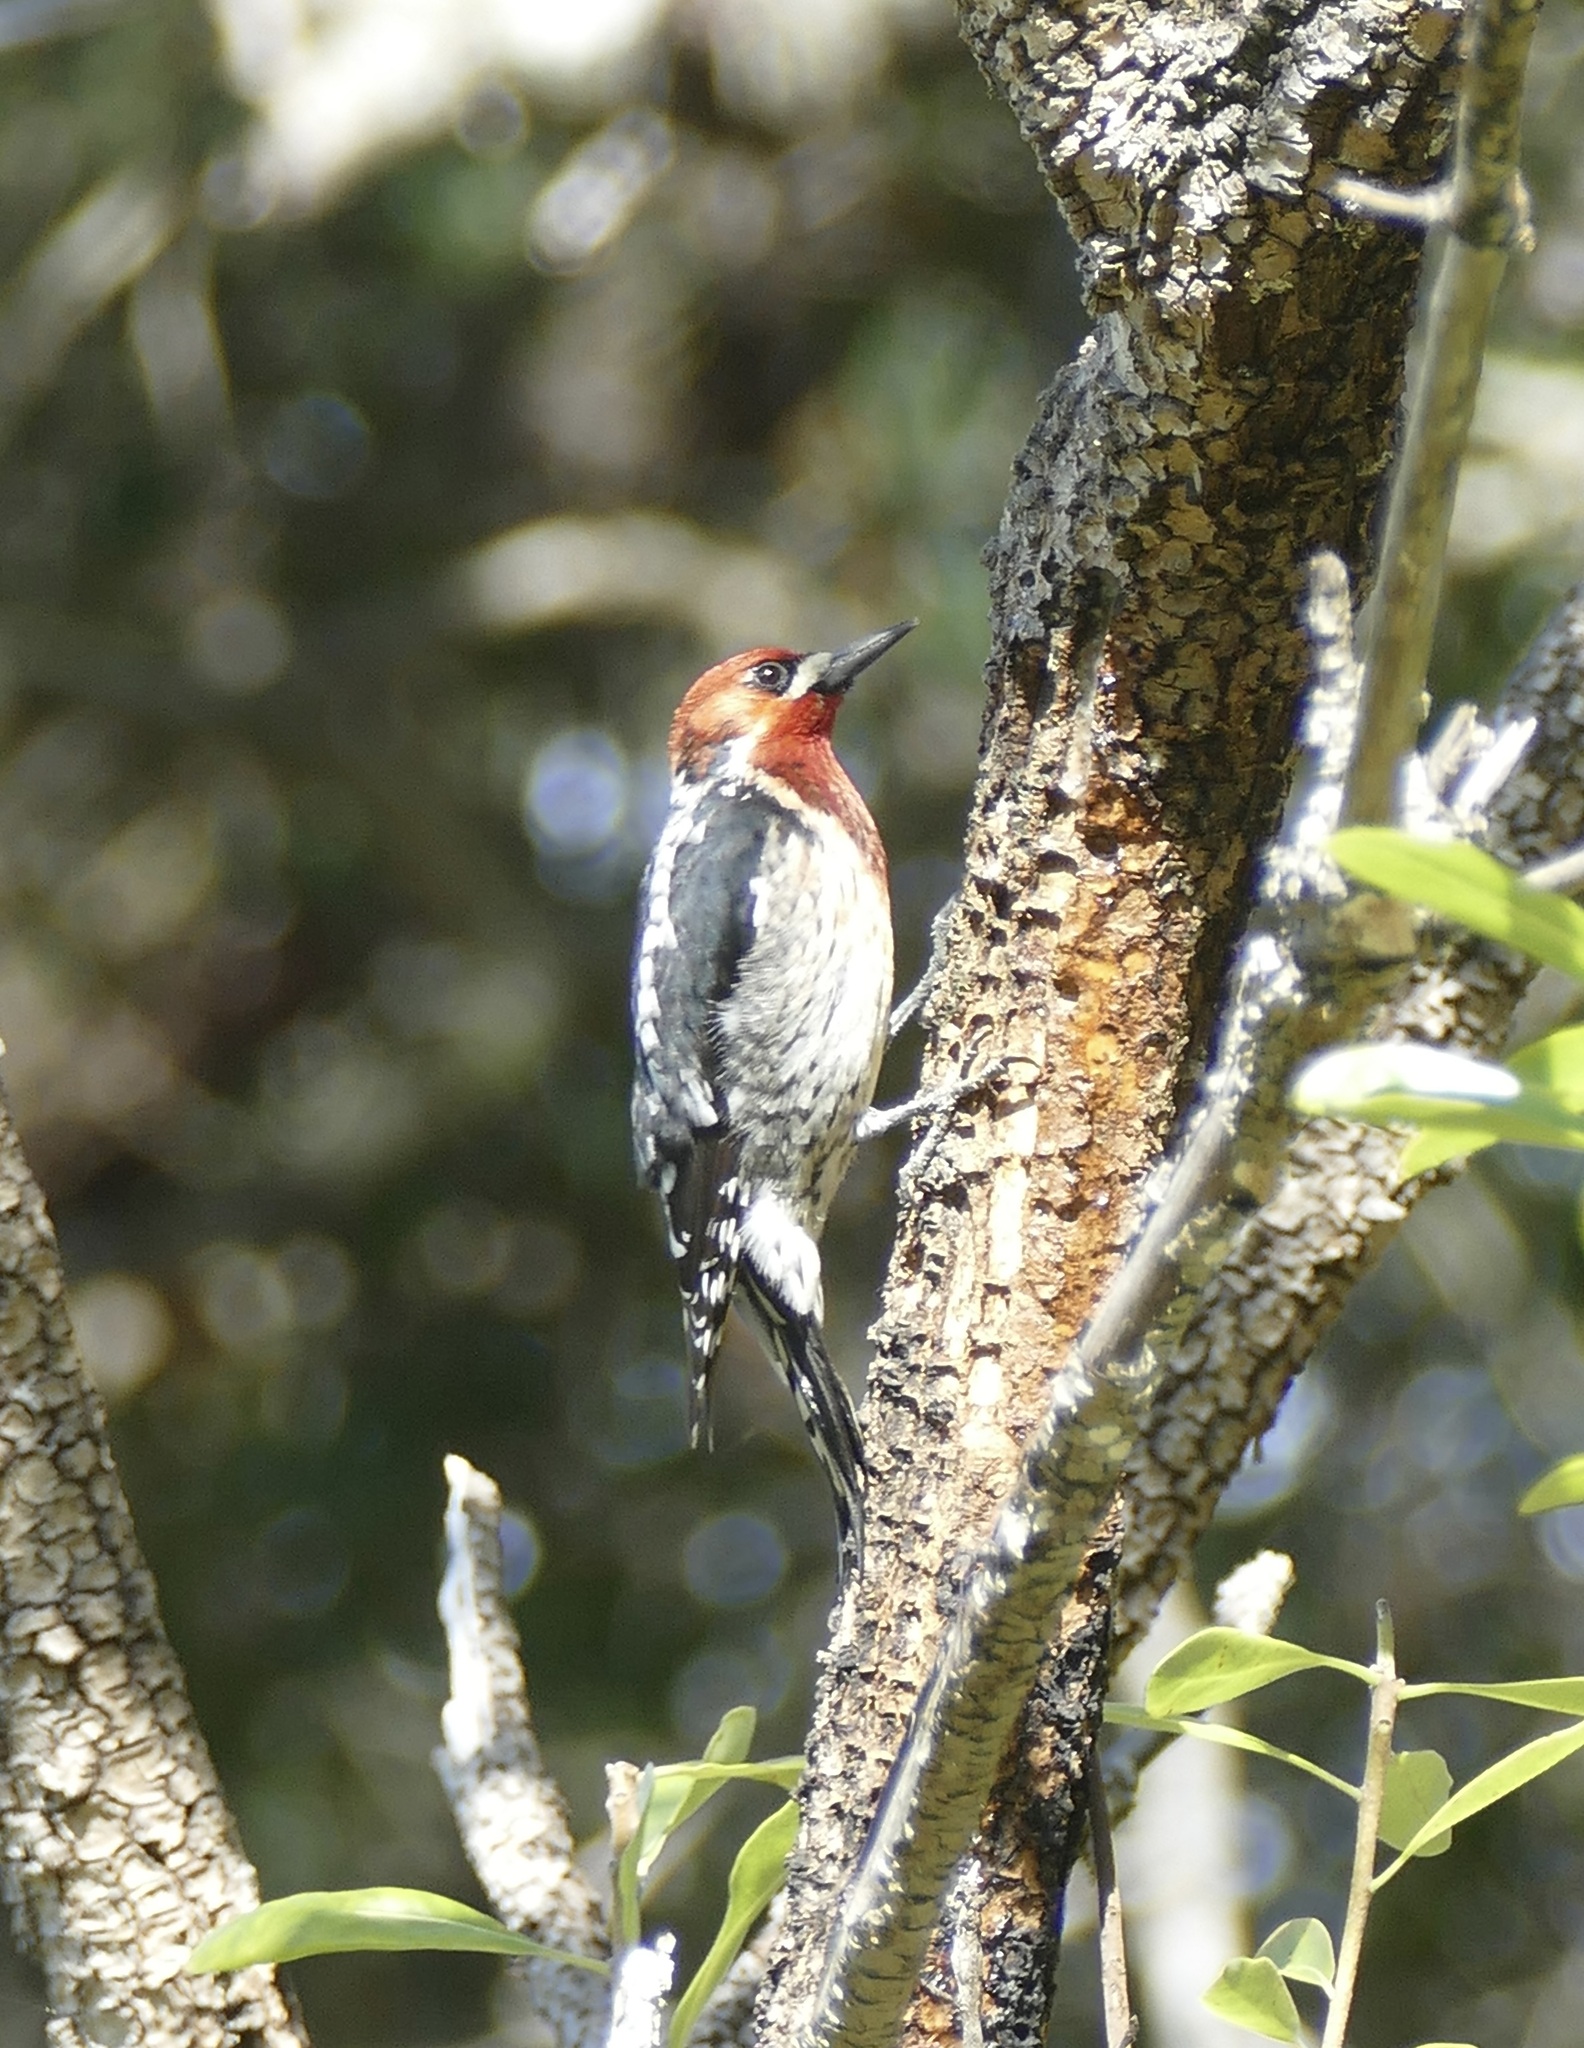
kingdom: Animalia
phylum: Chordata
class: Aves
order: Piciformes
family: Picidae
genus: Sphyrapicus
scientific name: Sphyrapicus ruber
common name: Red-breasted sapsucker
